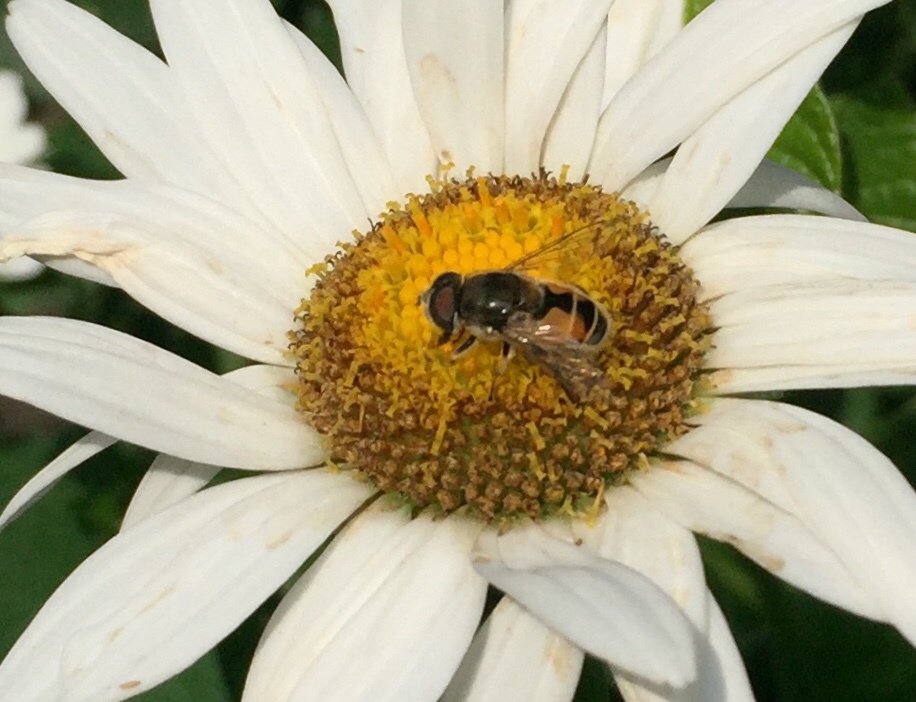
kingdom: Animalia
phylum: Arthropoda
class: Insecta
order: Diptera
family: Syrphidae
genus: Eristalis
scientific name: Eristalis arbustorum
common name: Hover fly
